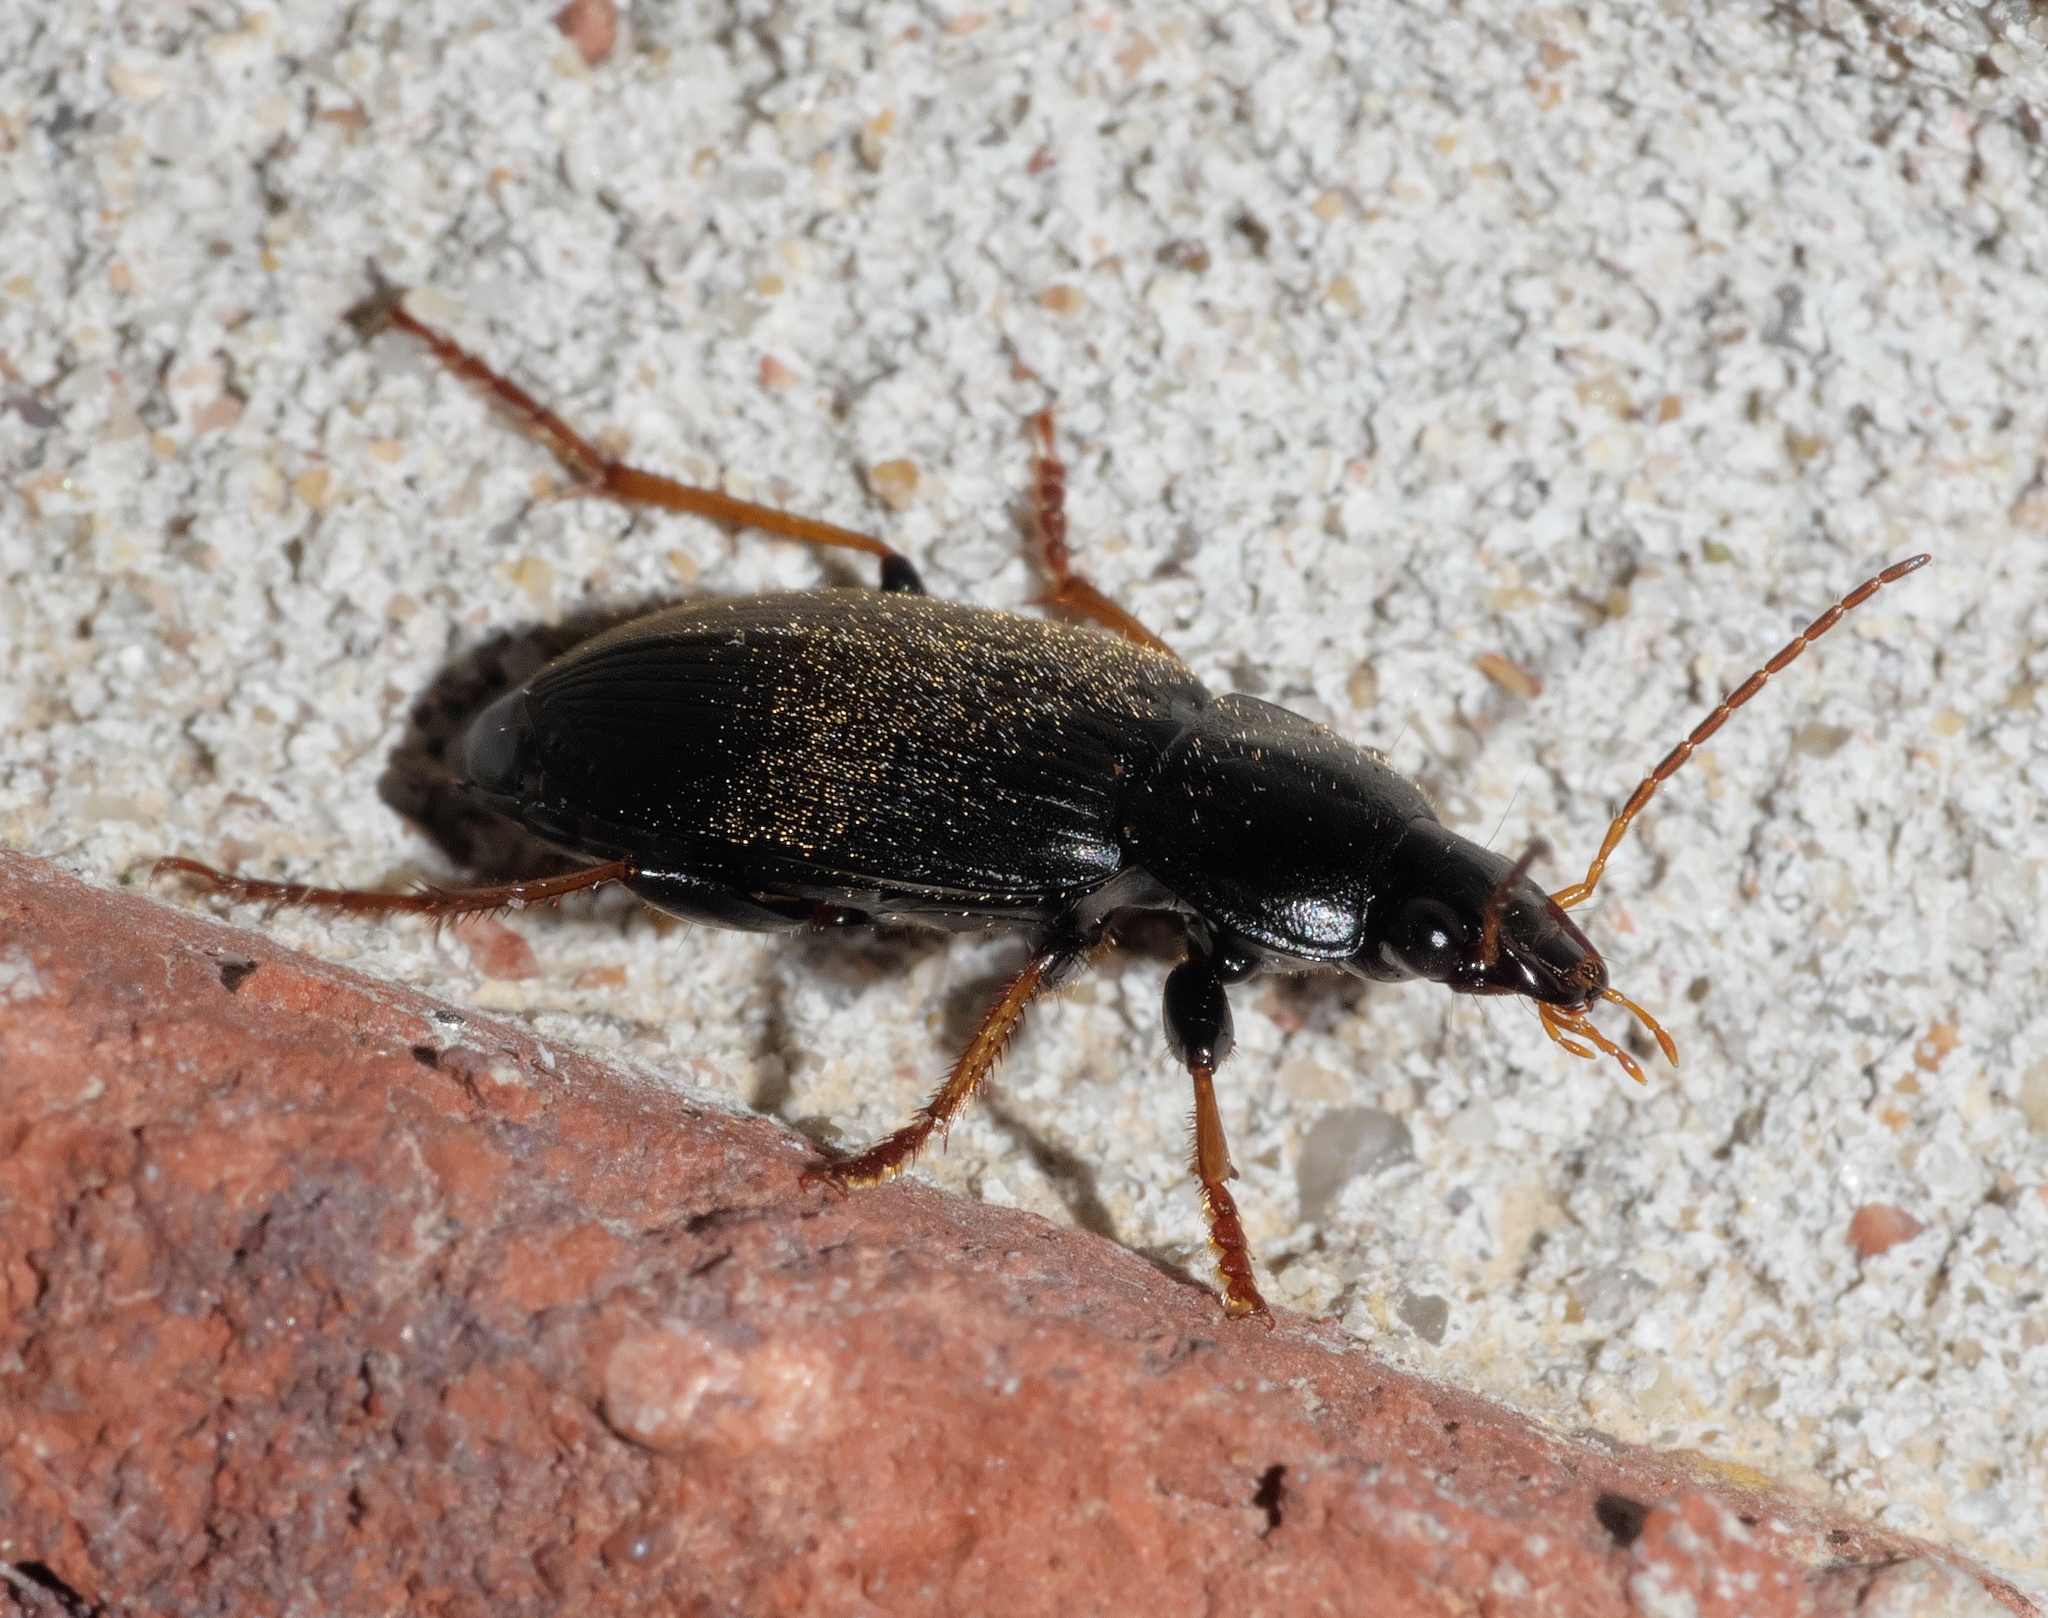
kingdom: Animalia
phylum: Arthropoda
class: Insecta
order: Coleoptera
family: Carabidae
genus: Amphasia
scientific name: Amphasia sericea
